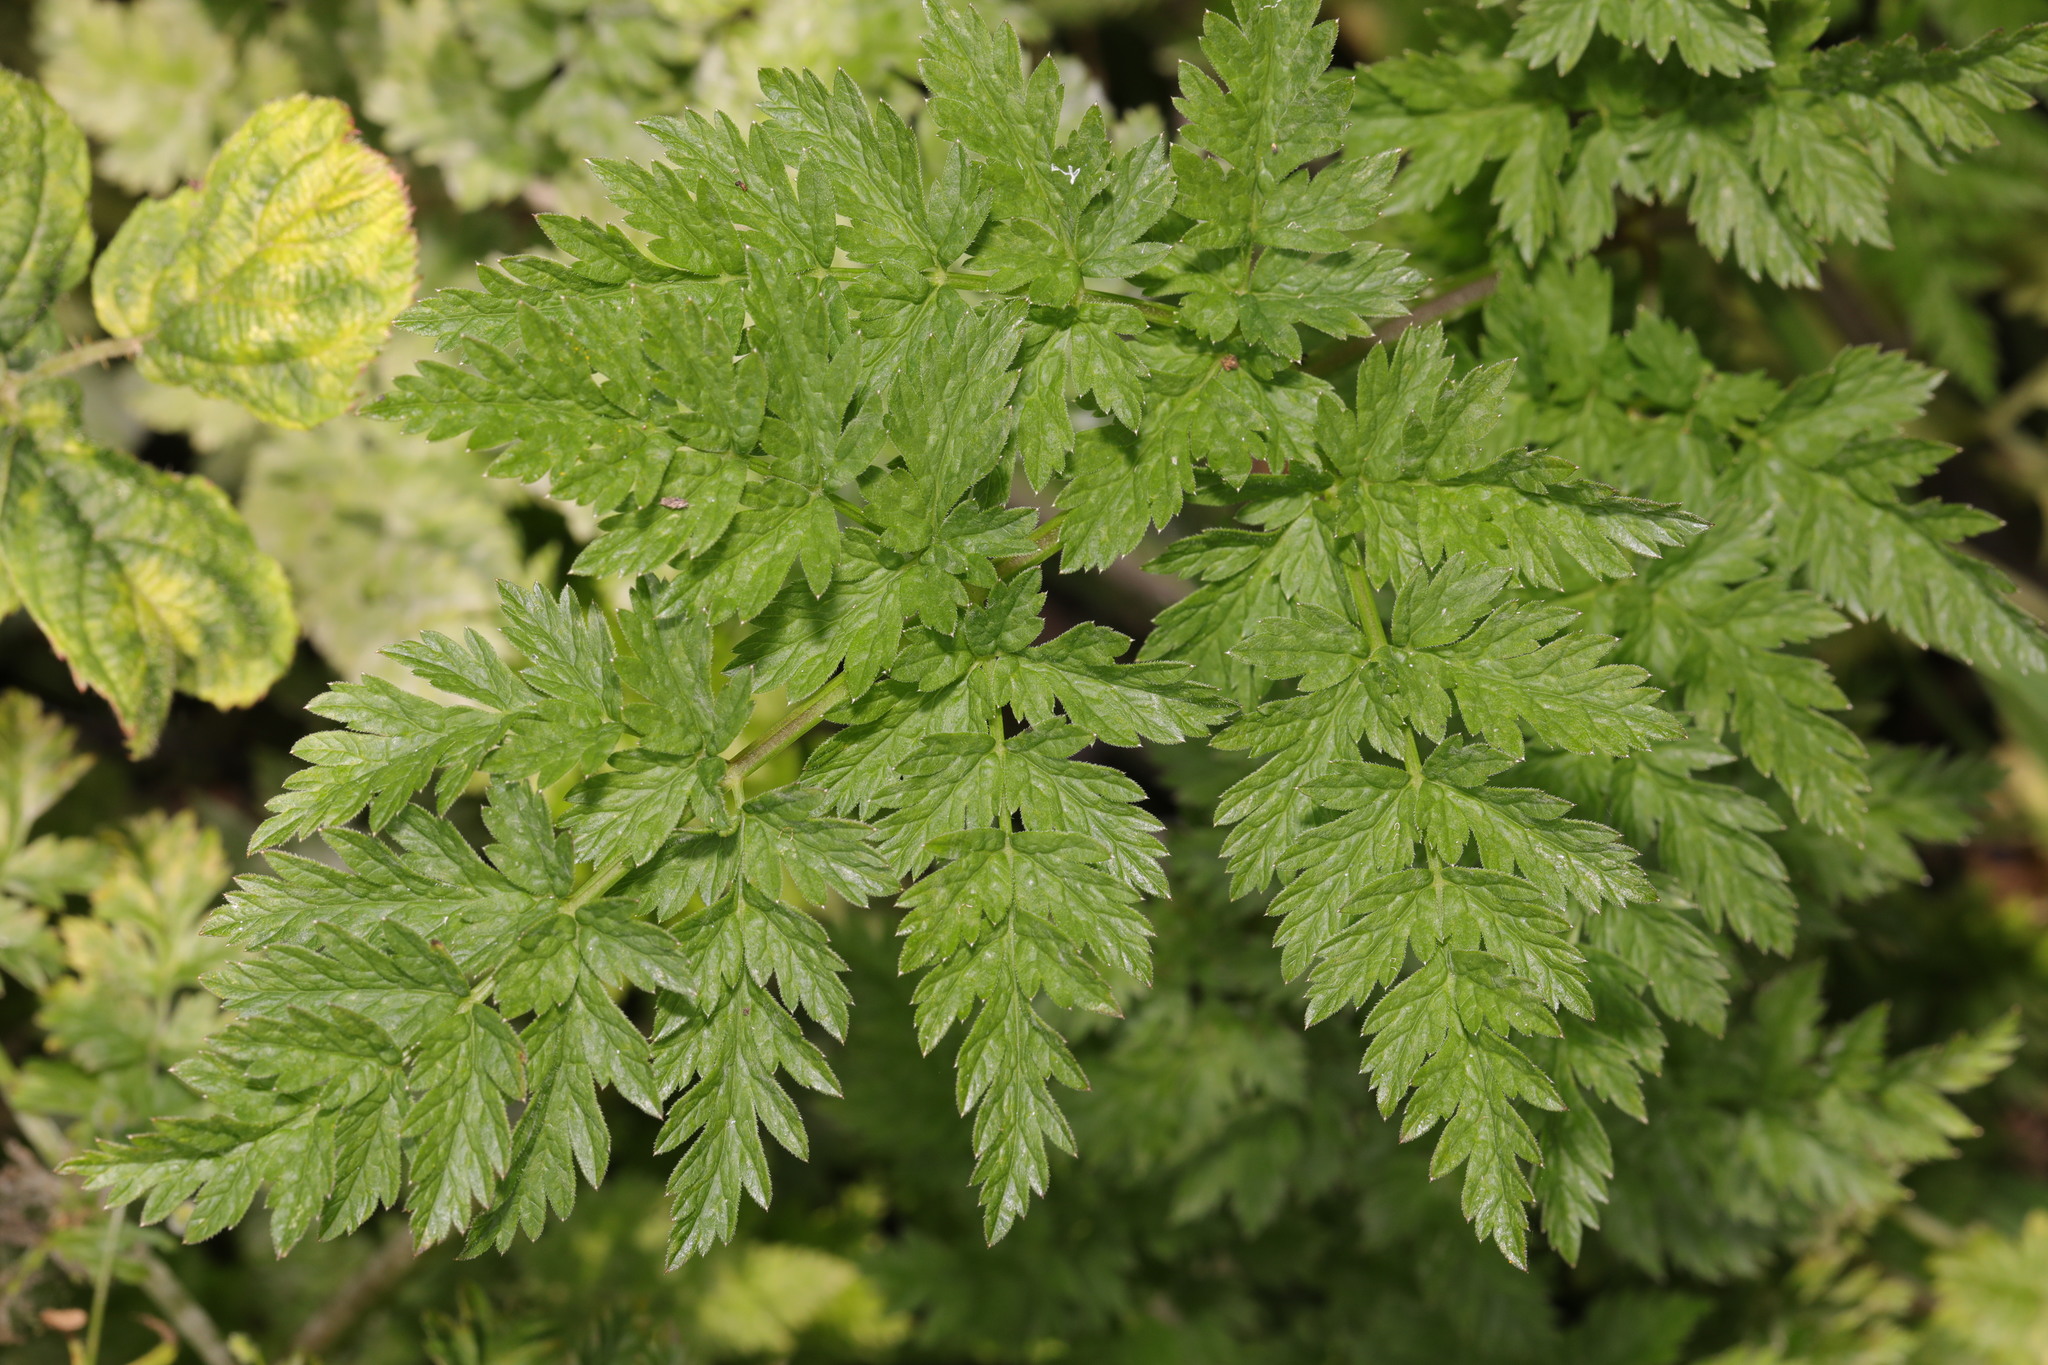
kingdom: Plantae
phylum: Tracheophyta
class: Magnoliopsida
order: Apiales
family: Apiaceae
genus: Anthriscus
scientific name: Anthriscus sylvestris
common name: Cow parsley
